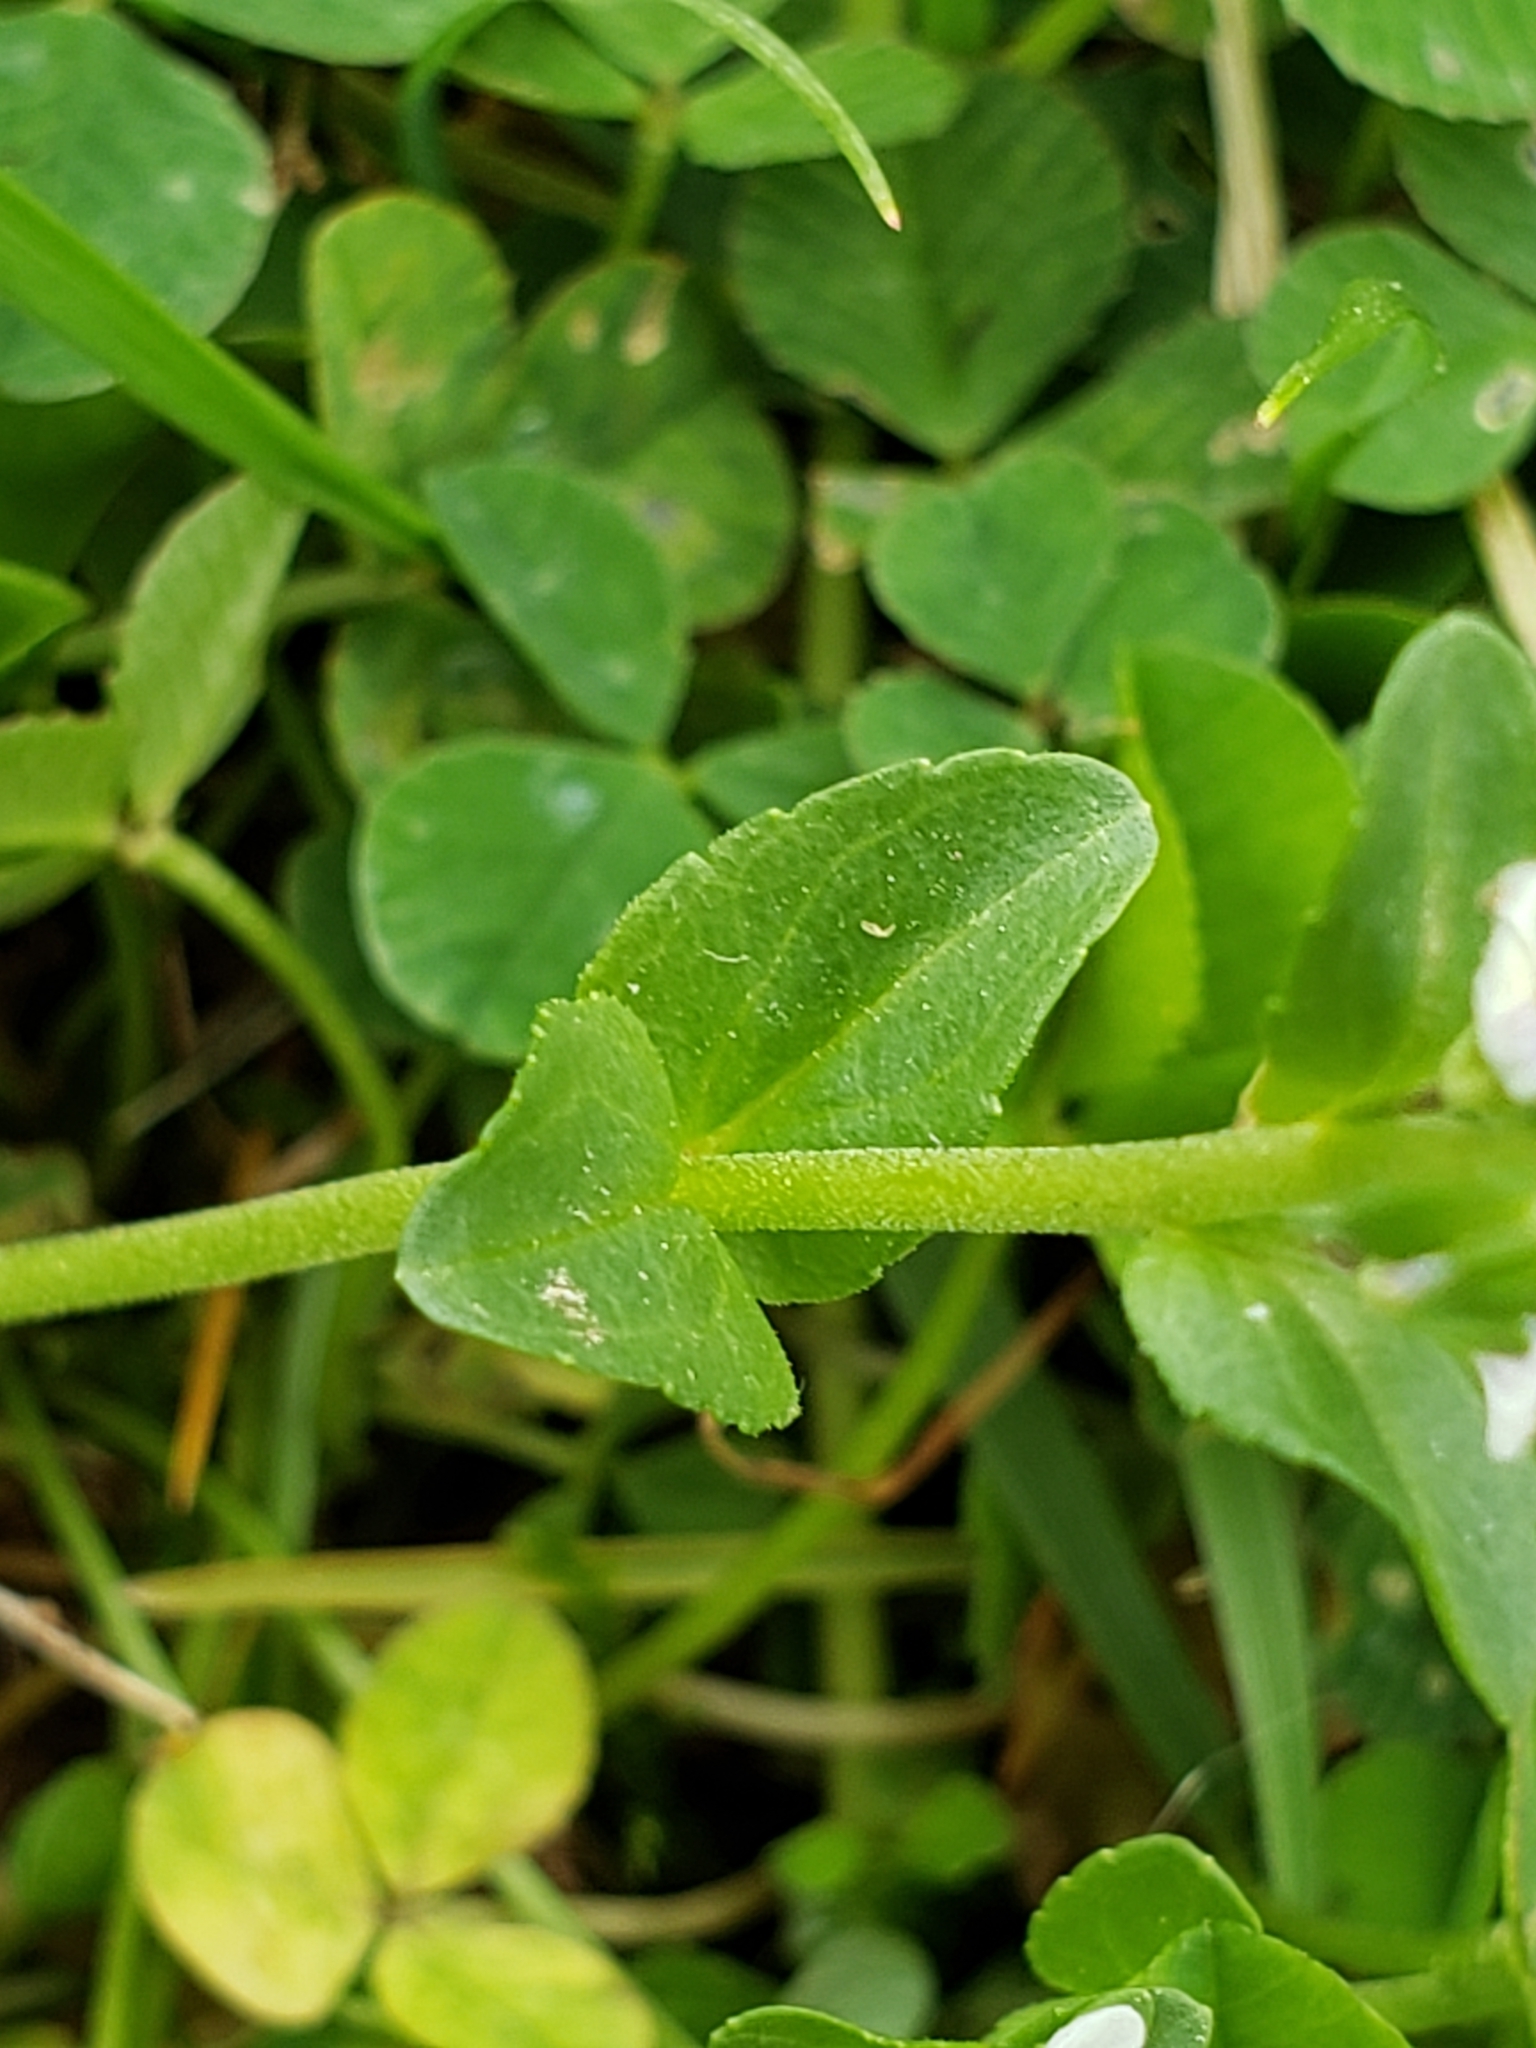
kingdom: Plantae
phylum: Tracheophyta
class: Magnoliopsida
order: Lamiales
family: Plantaginaceae
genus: Veronica
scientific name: Veronica serpyllifolia
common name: Thyme-leaved speedwell
